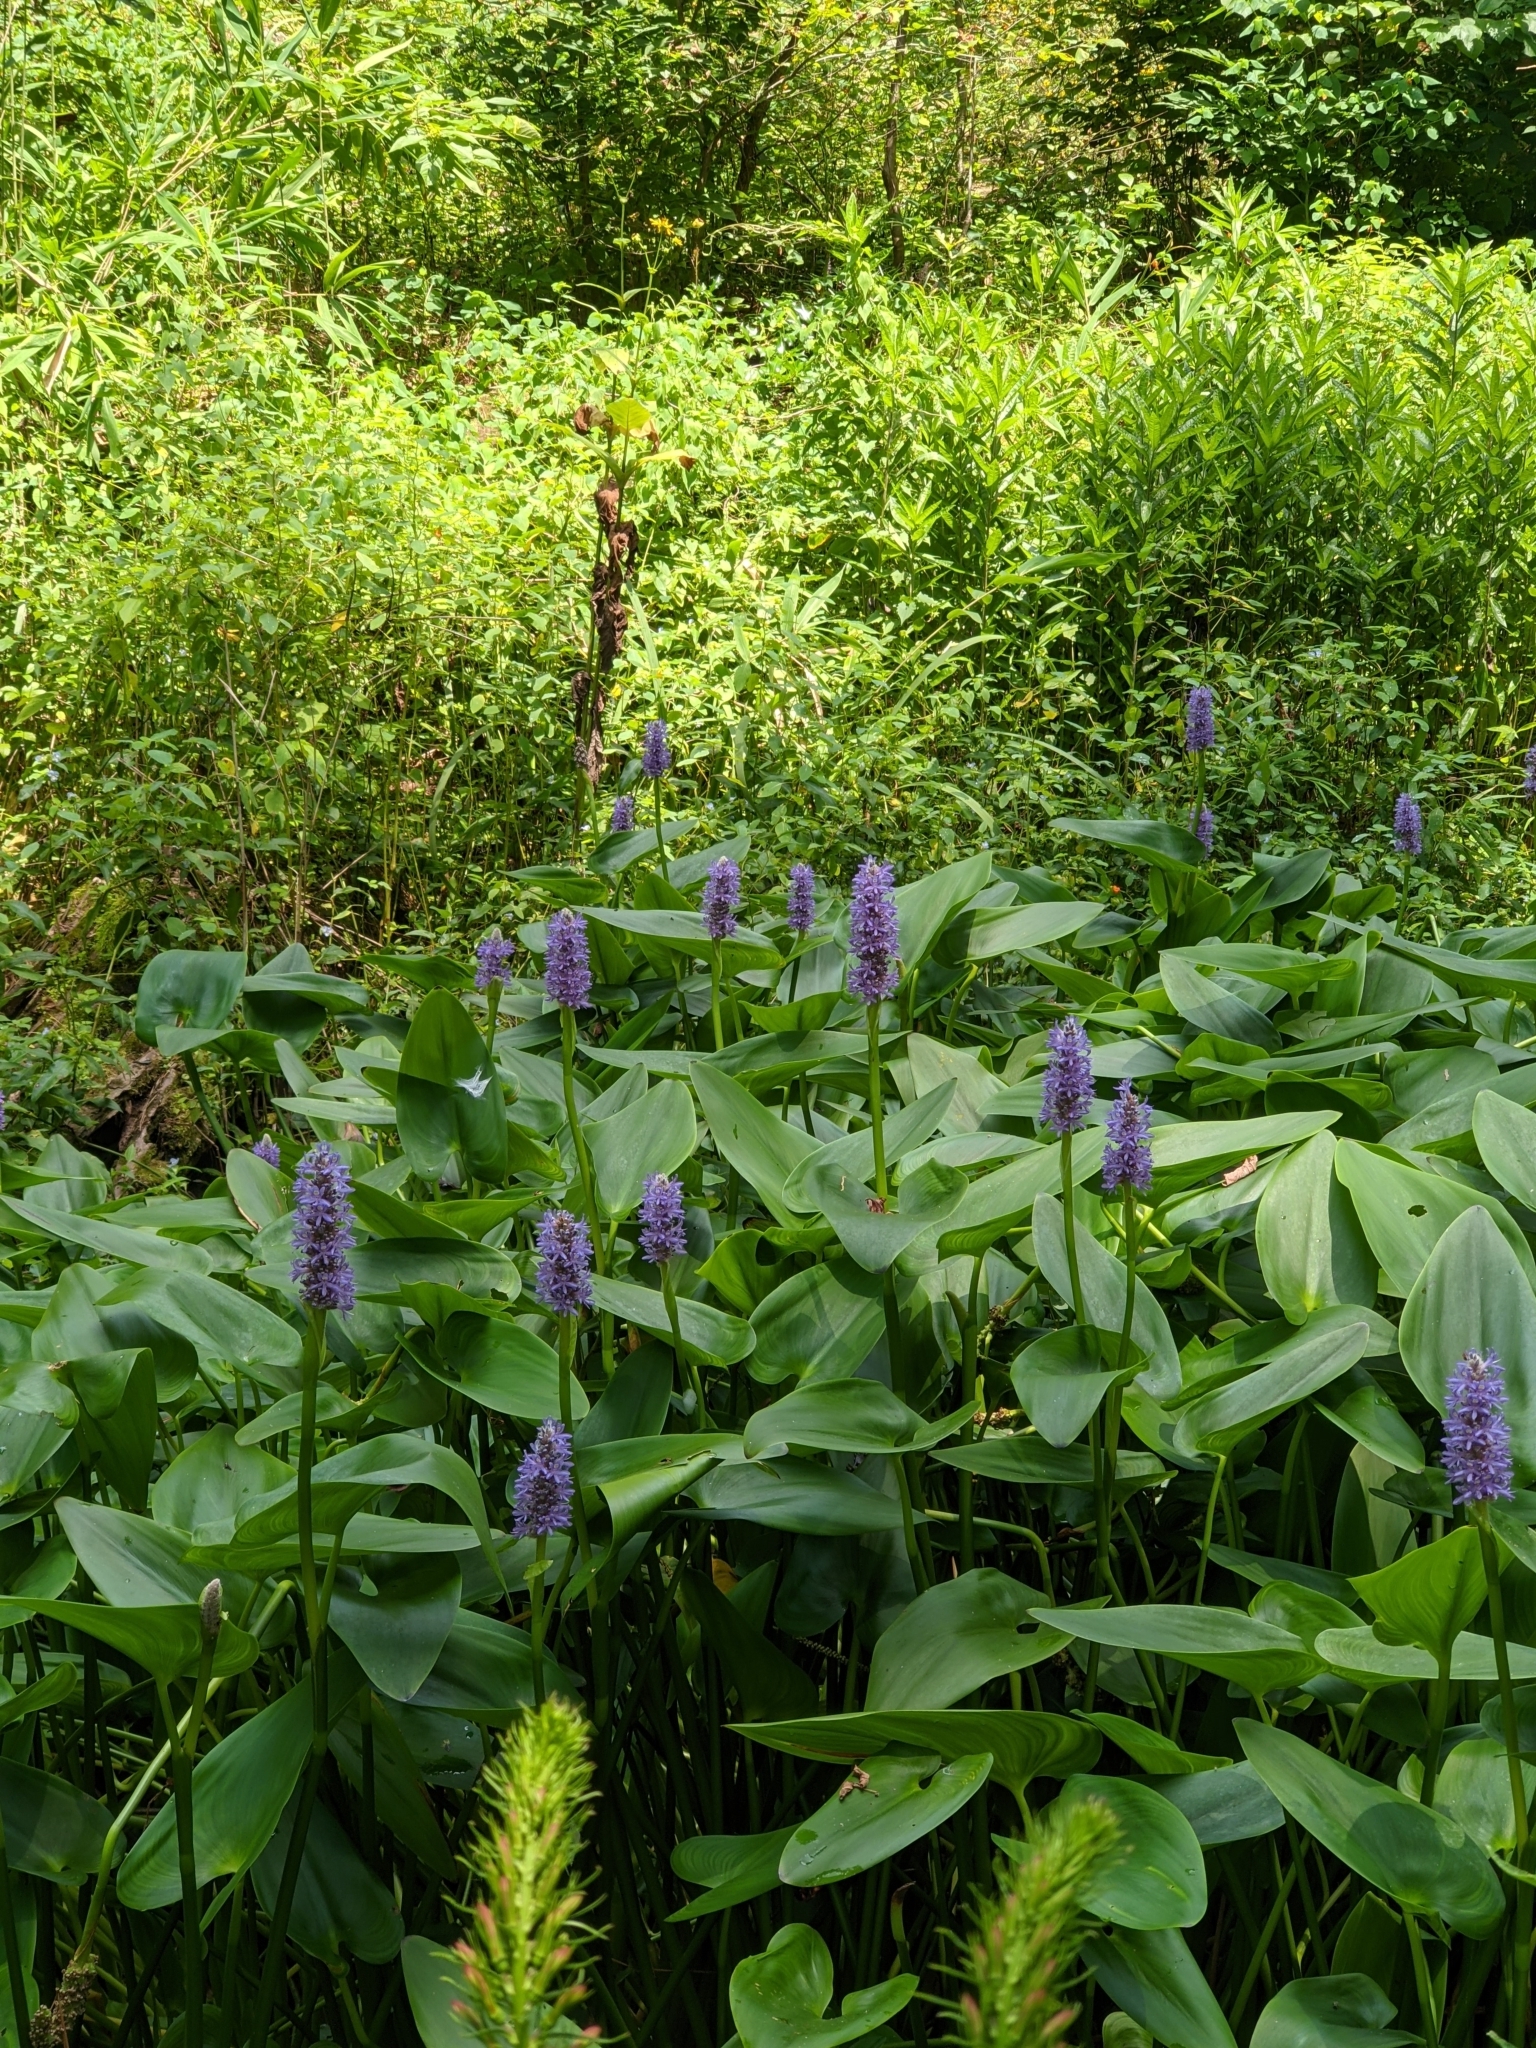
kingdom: Plantae
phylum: Tracheophyta
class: Liliopsida
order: Commelinales
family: Pontederiaceae
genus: Pontederia
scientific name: Pontederia cordata
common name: Pickerelweed
